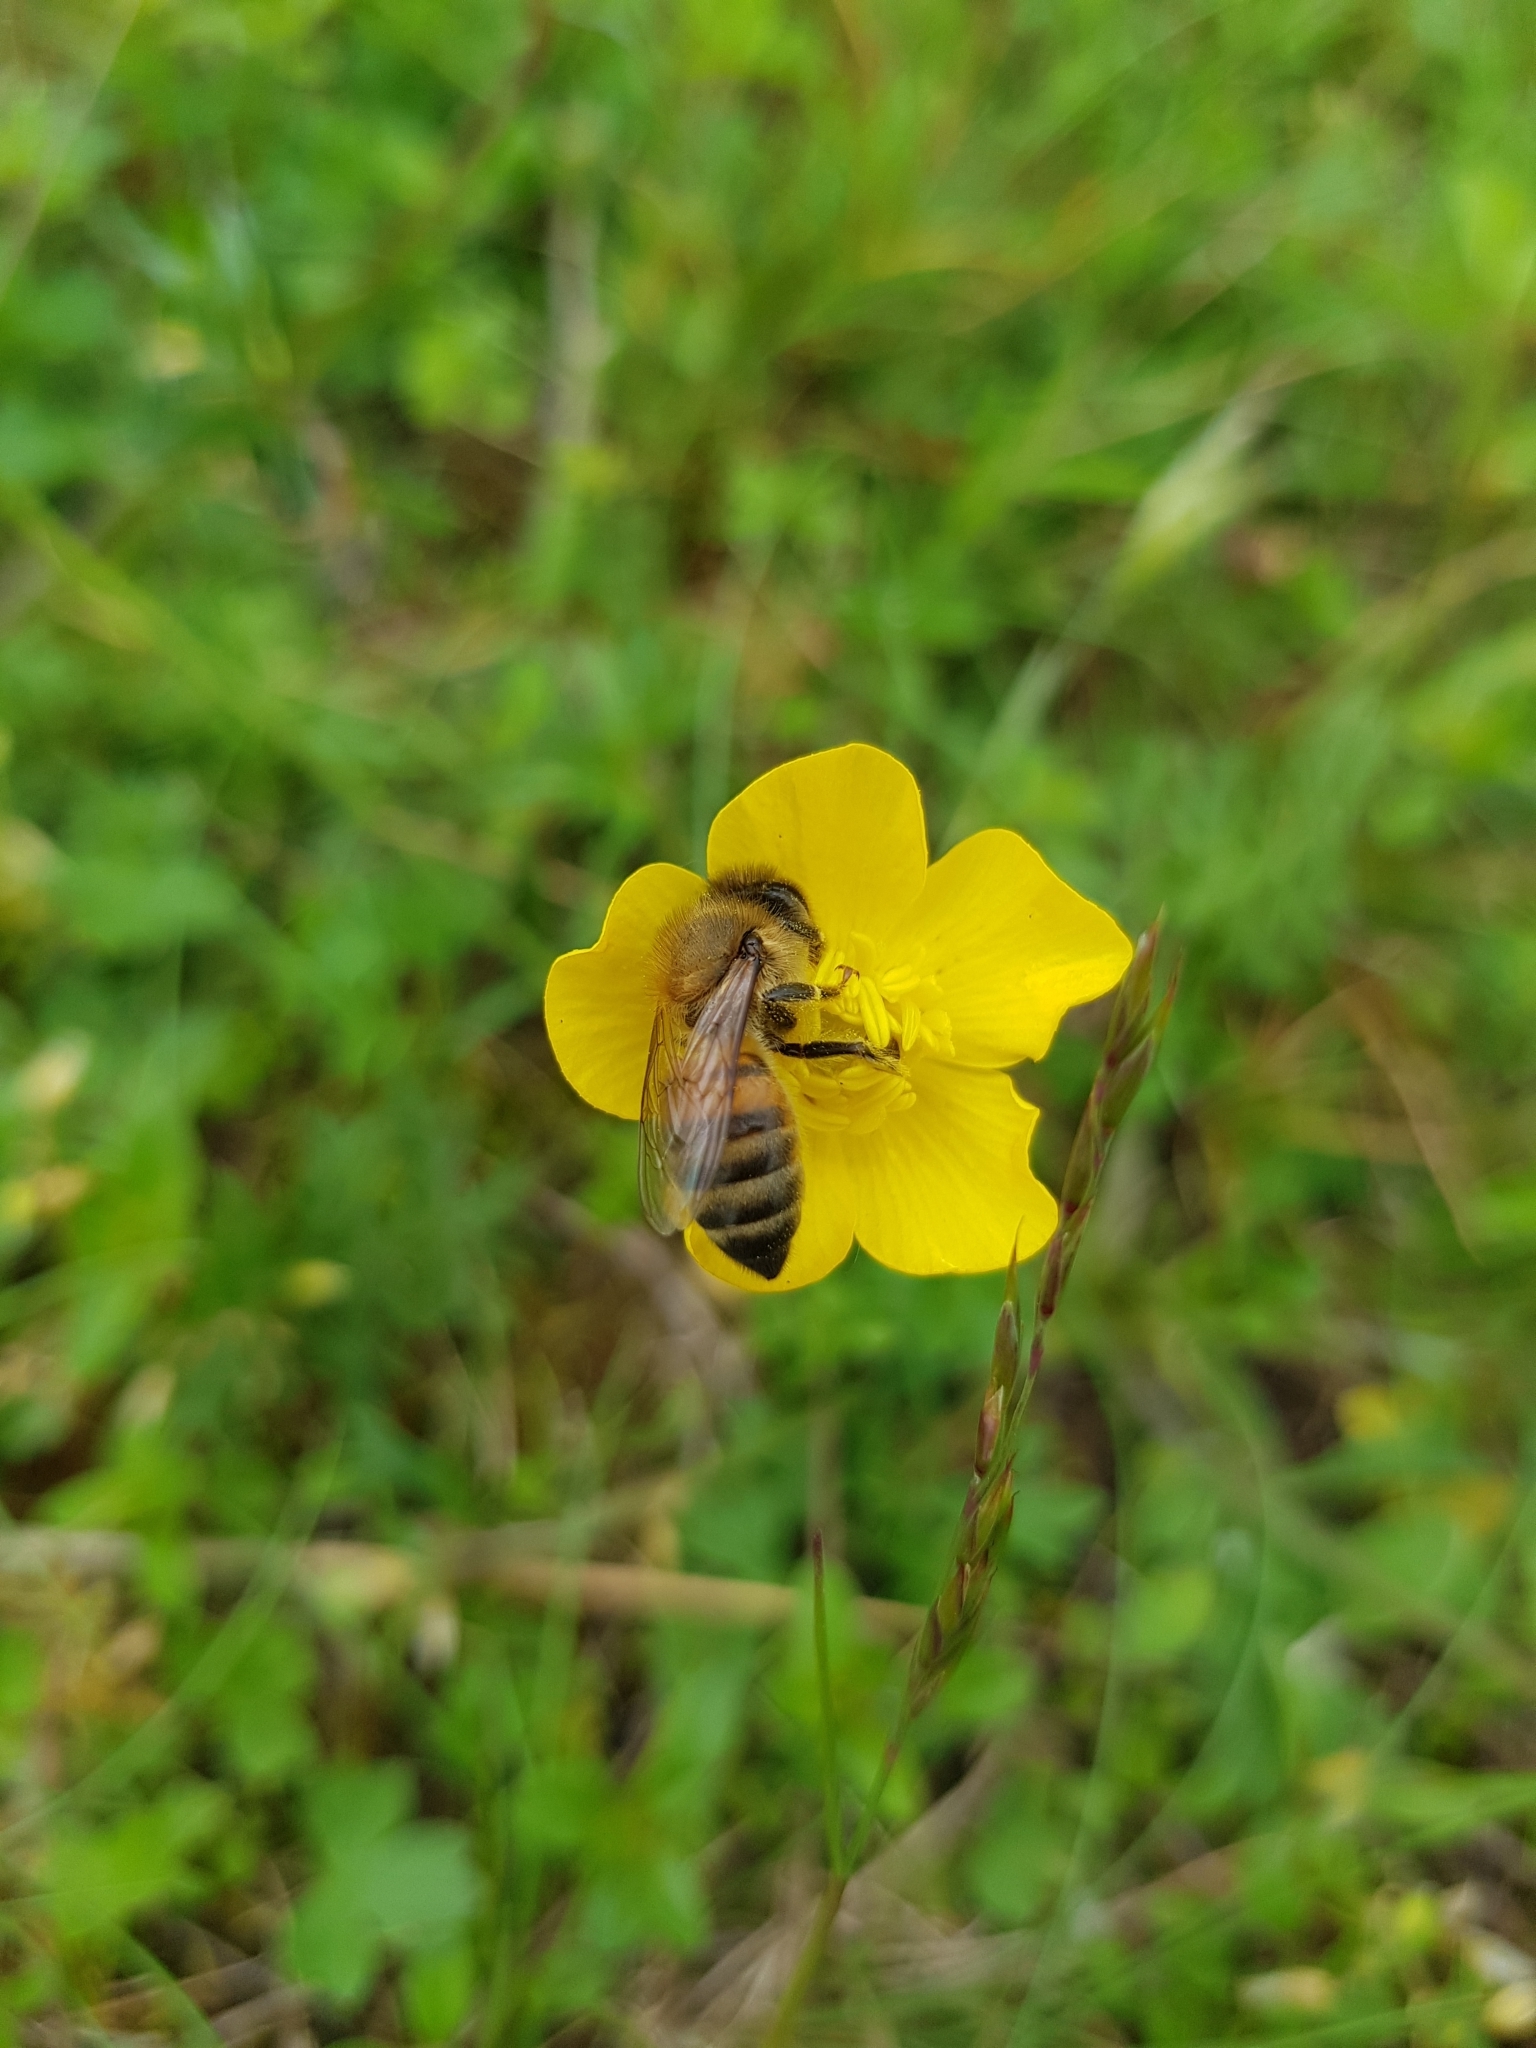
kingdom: Animalia
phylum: Arthropoda
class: Insecta
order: Hymenoptera
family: Apidae
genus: Apis
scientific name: Apis mellifera
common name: Honey bee
